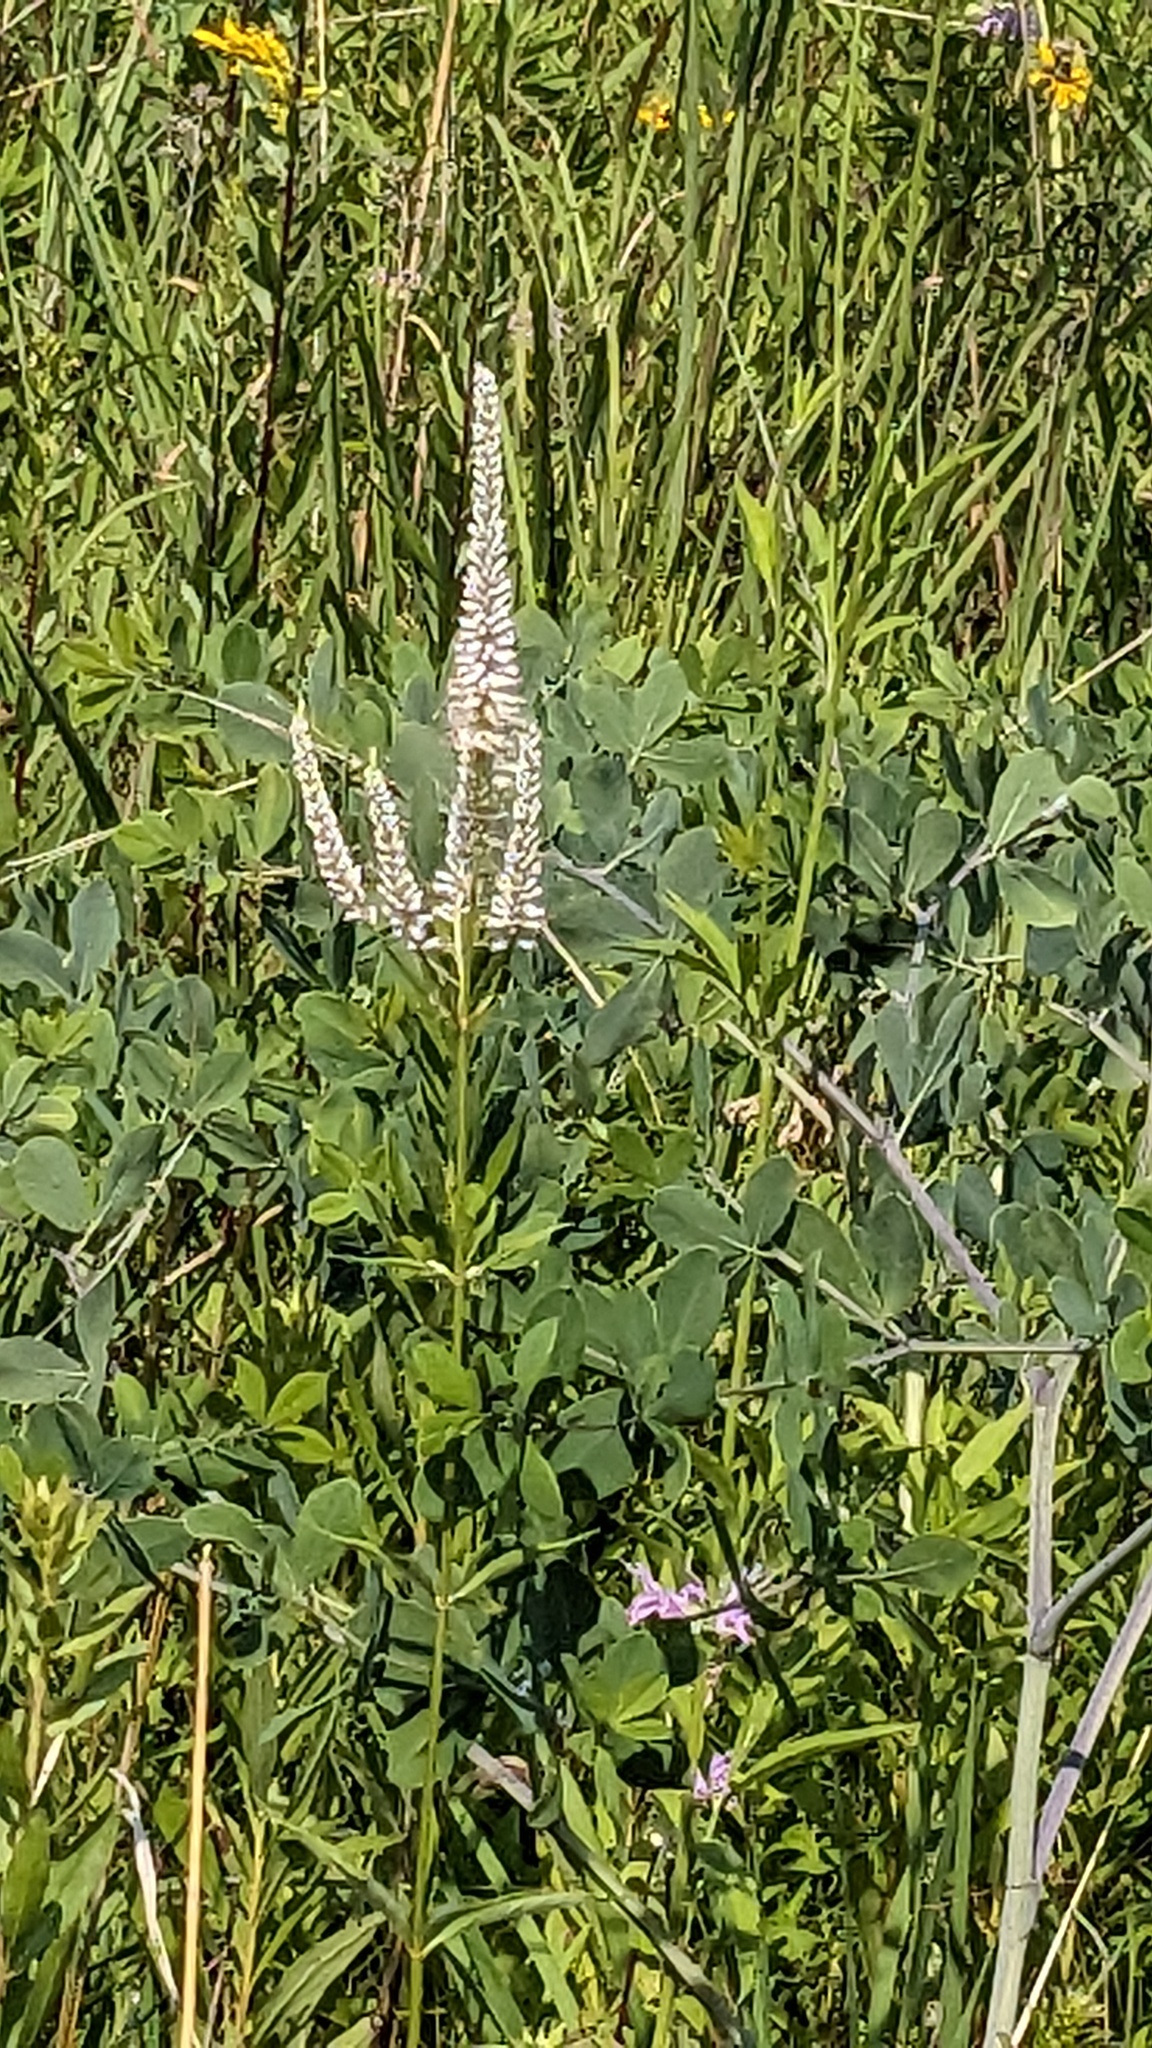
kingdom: Plantae
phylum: Tracheophyta
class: Magnoliopsida
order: Lamiales
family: Plantaginaceae
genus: Veronicastrum
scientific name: Veronicastrum virginicum
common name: Blackroot
